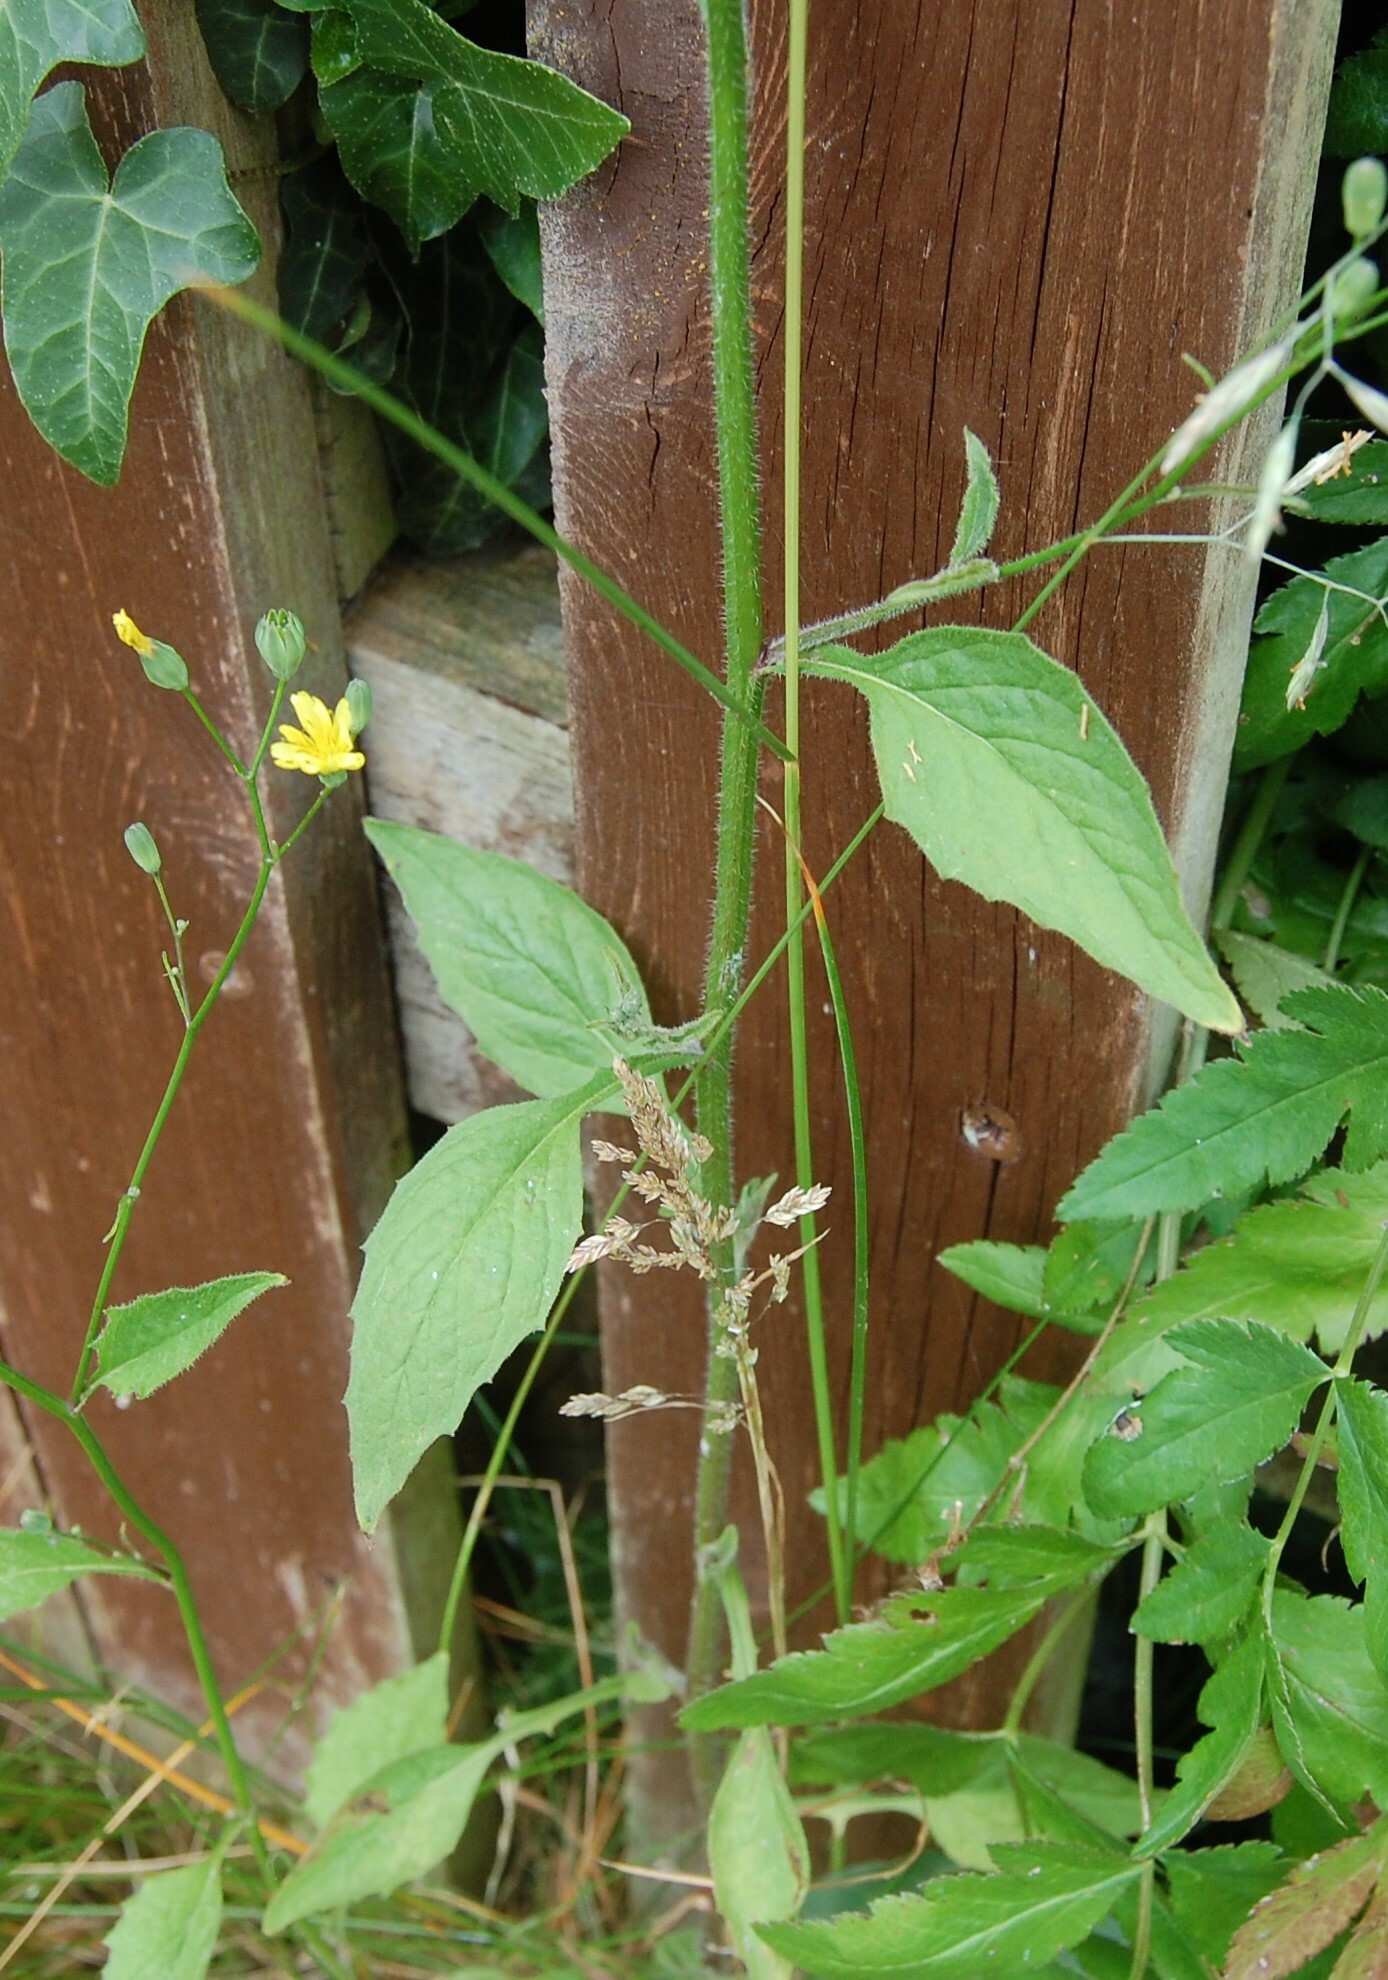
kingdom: Plantae
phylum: Tracheophyta
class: Magnoliopsida
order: Asterales
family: Asteraceae
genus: Lapsana
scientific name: Lapsana communis
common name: Nipplewort
